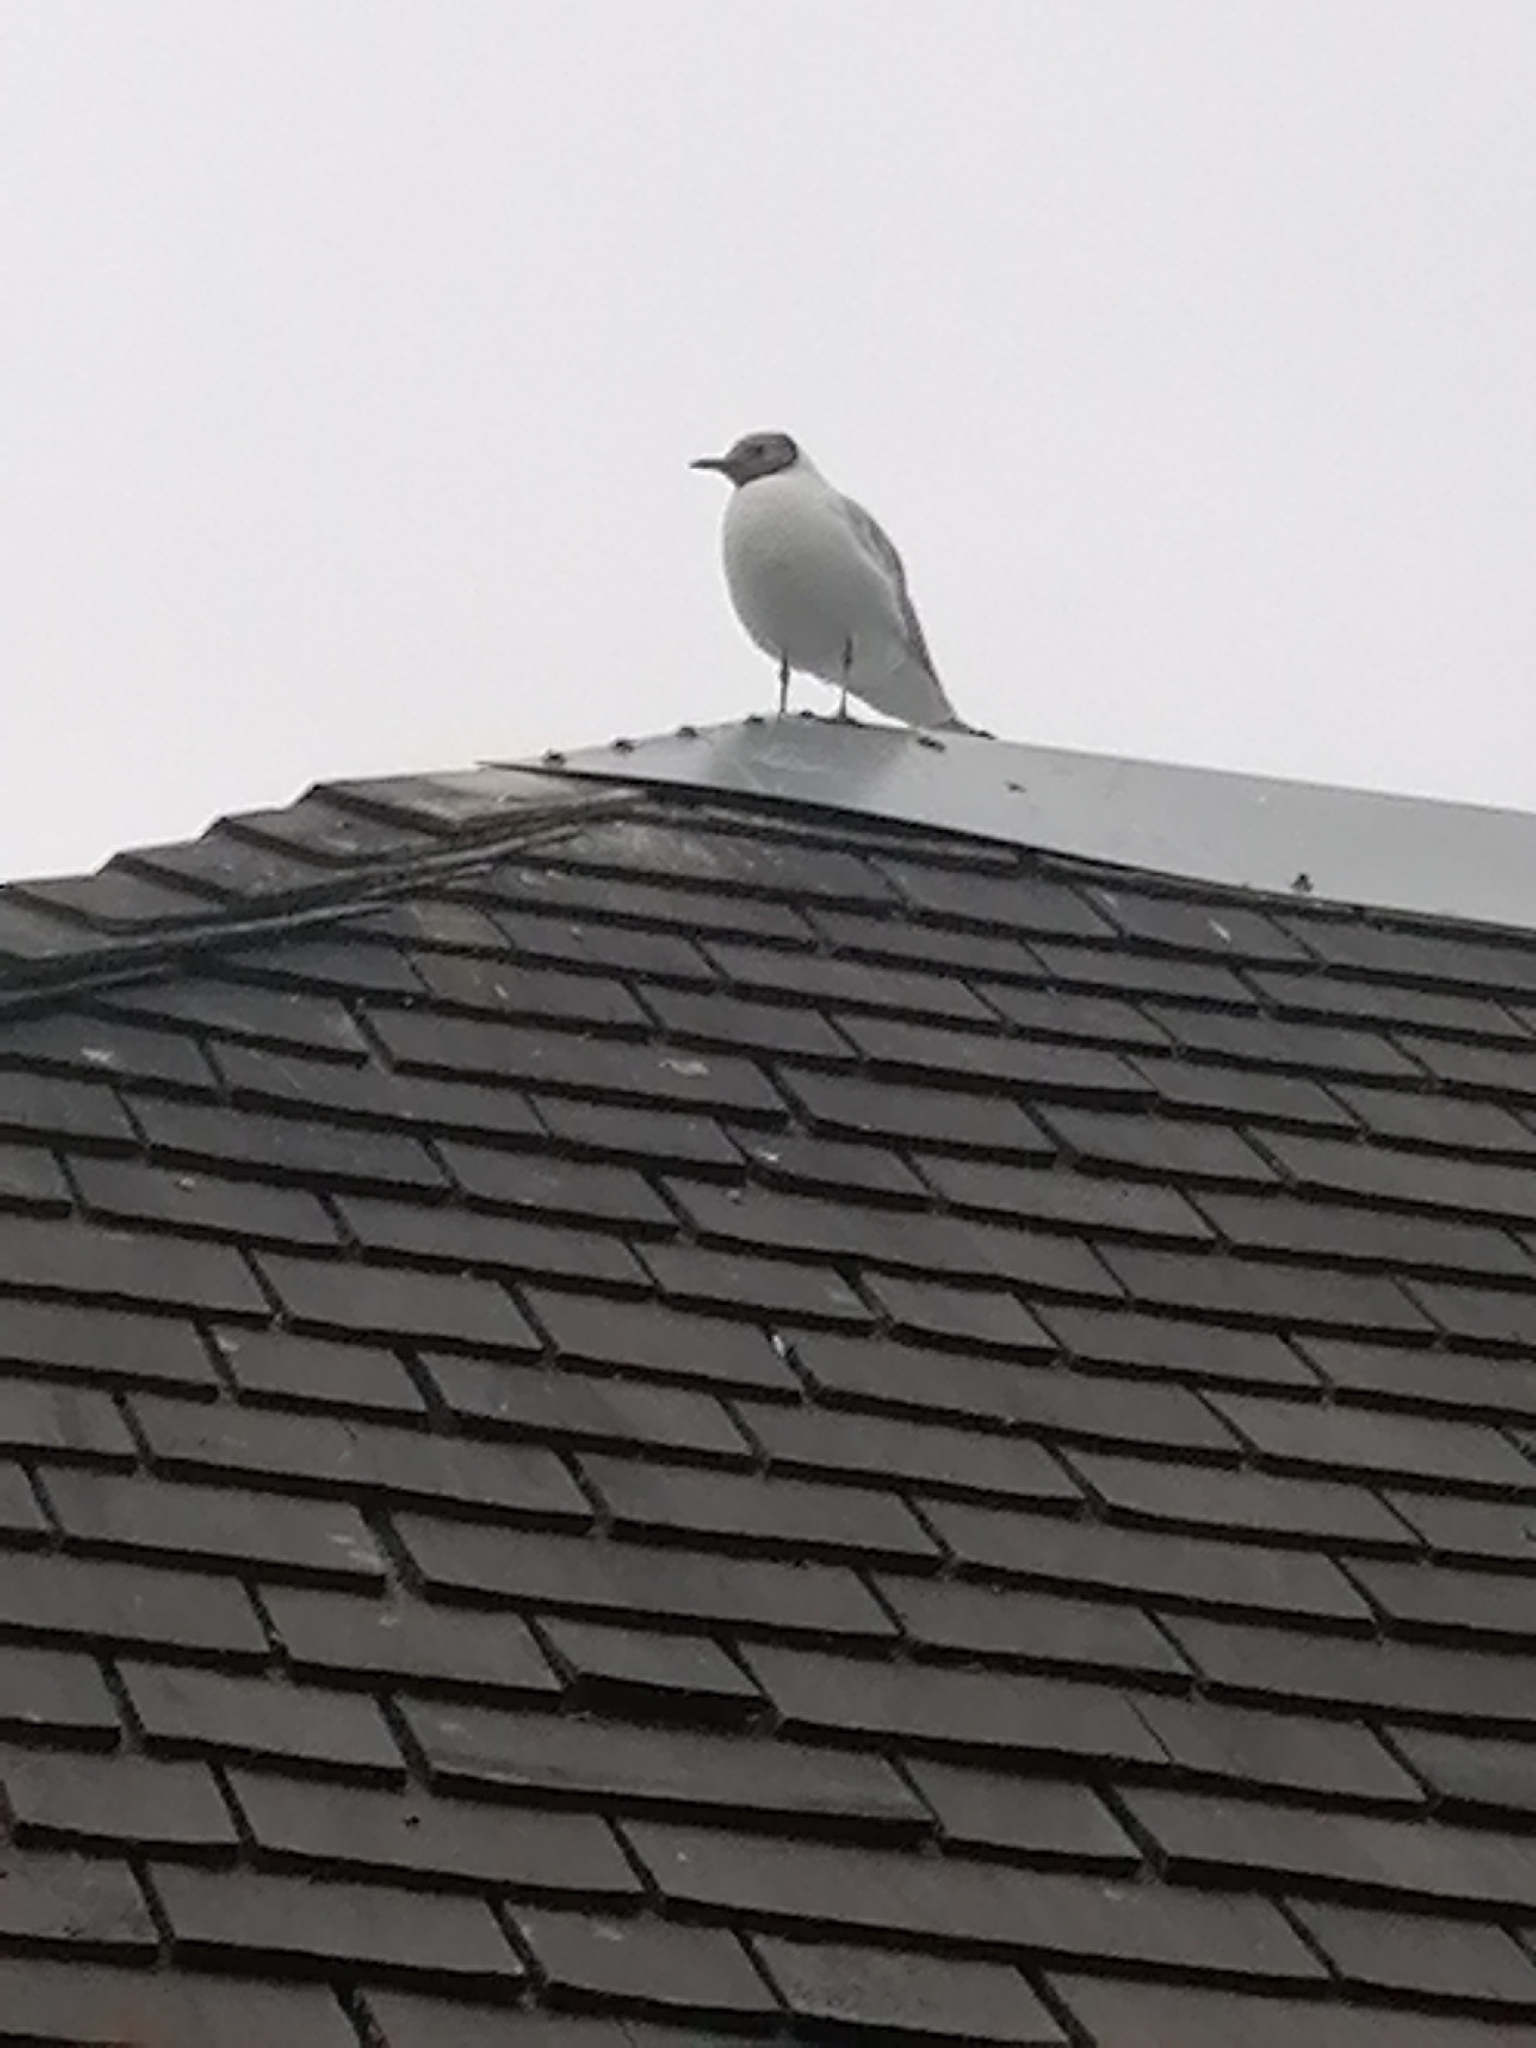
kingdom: Animalia
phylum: Chordata
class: Aves
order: Charadriiformes
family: Laridae
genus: Chroicocephalus
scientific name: Chroicocephalus ridibundus
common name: Black-headed gull
